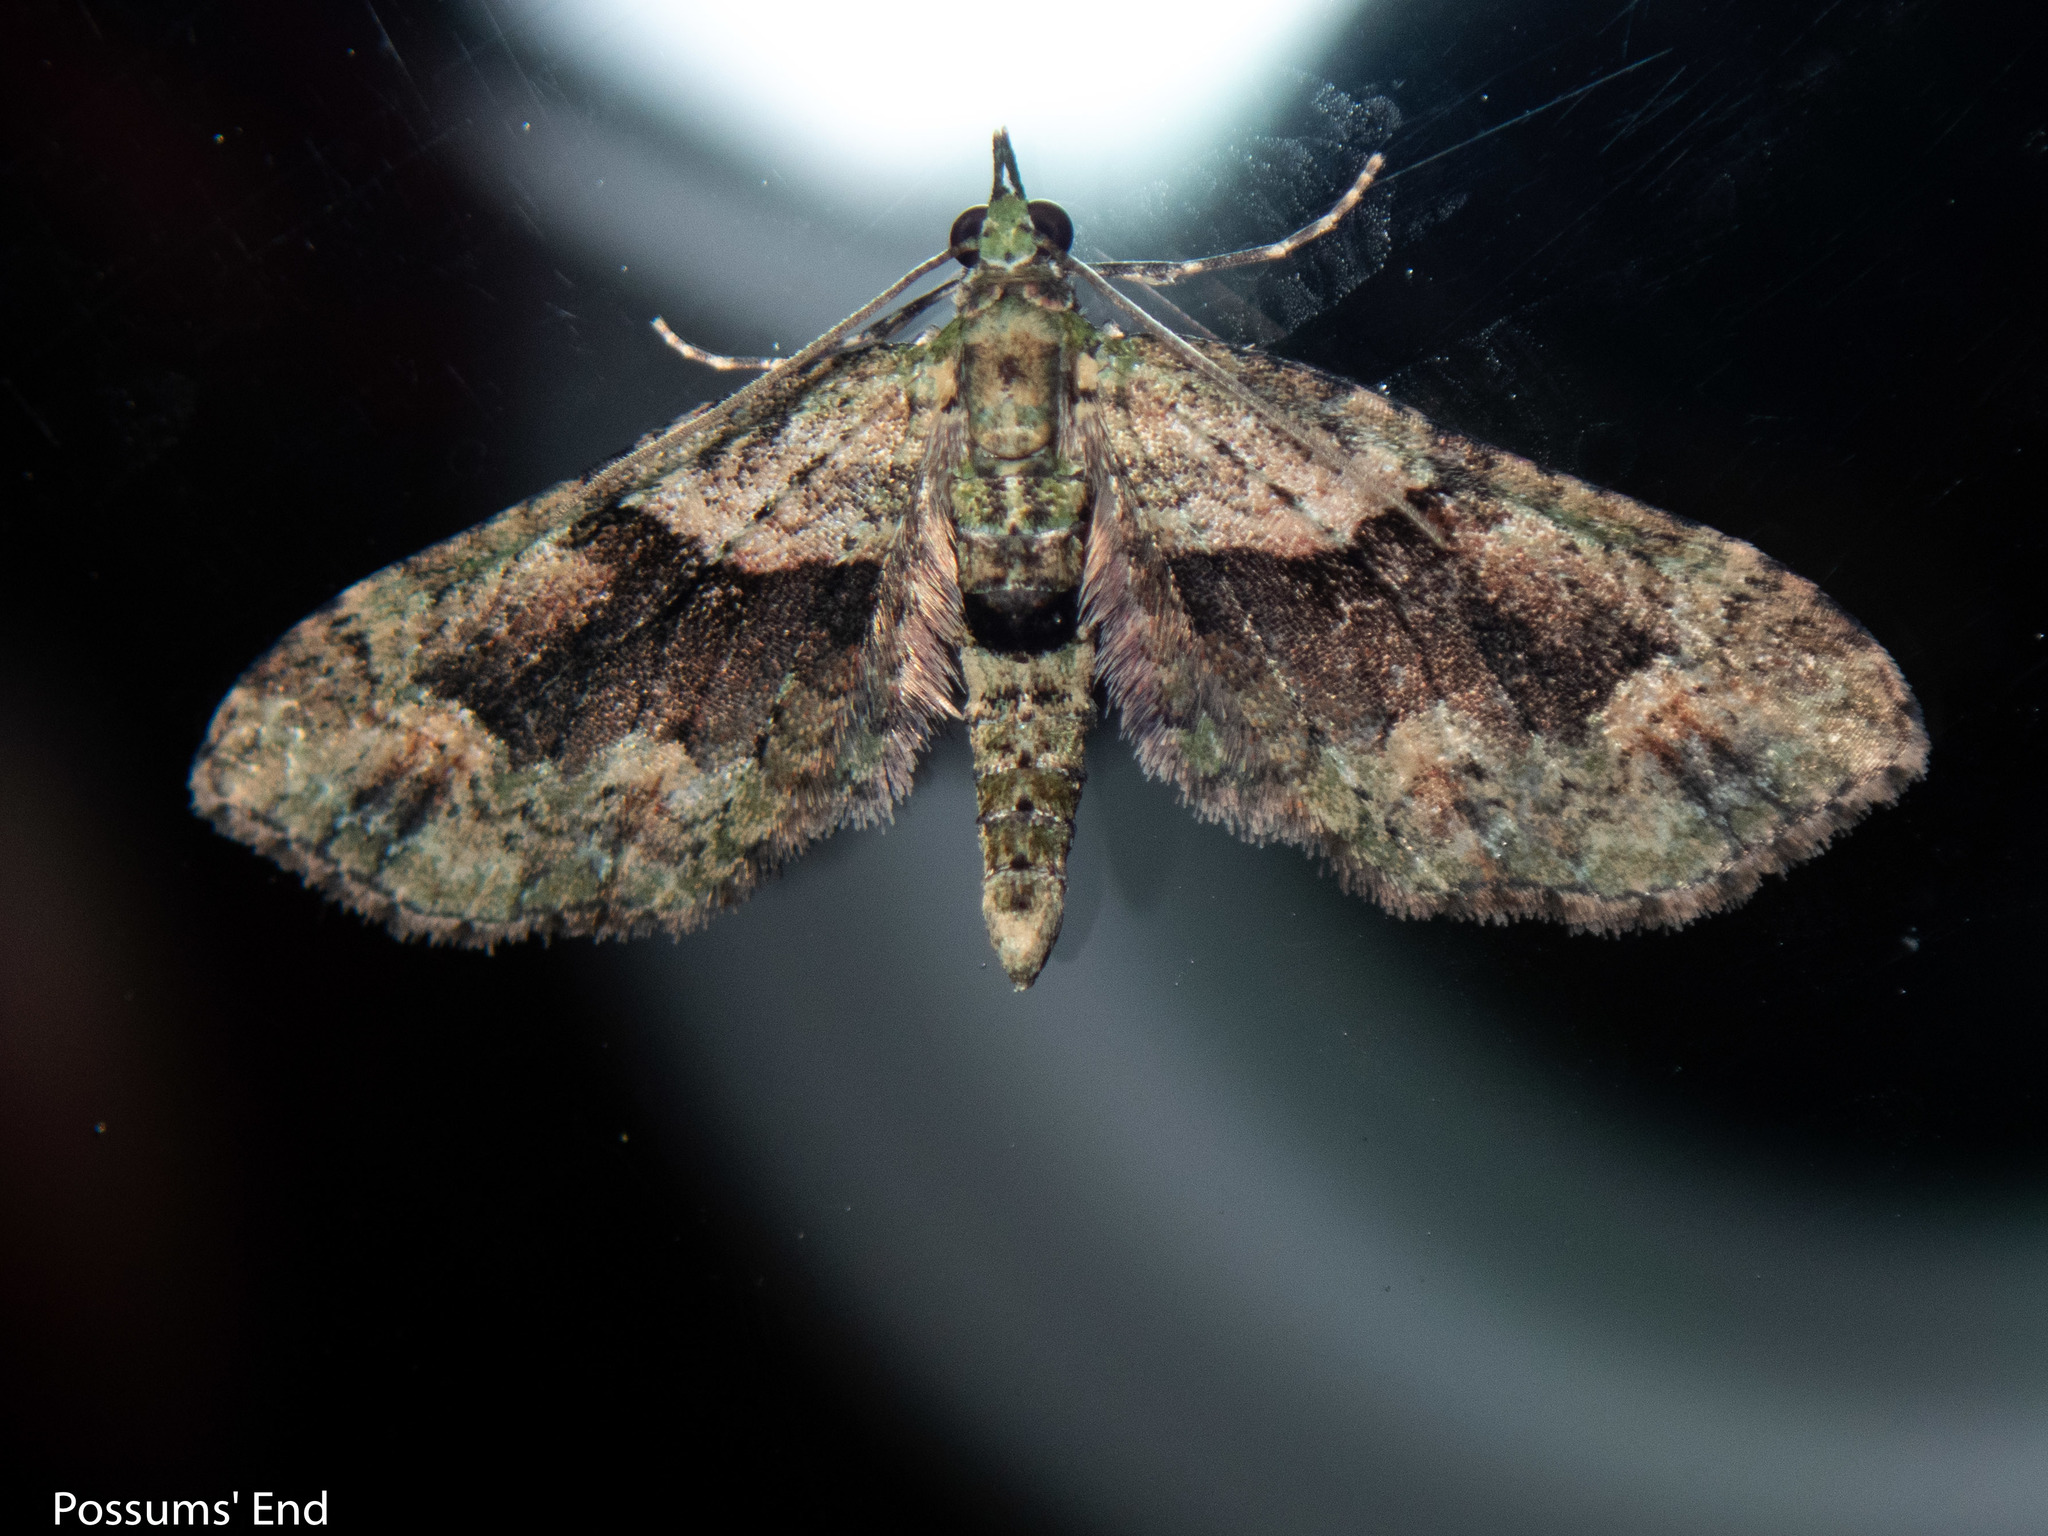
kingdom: Animalia
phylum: Arthropoda
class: Insecta
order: Lepidoptera
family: Geometridae
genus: Pasiphila
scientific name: Pasiphila suffusa
